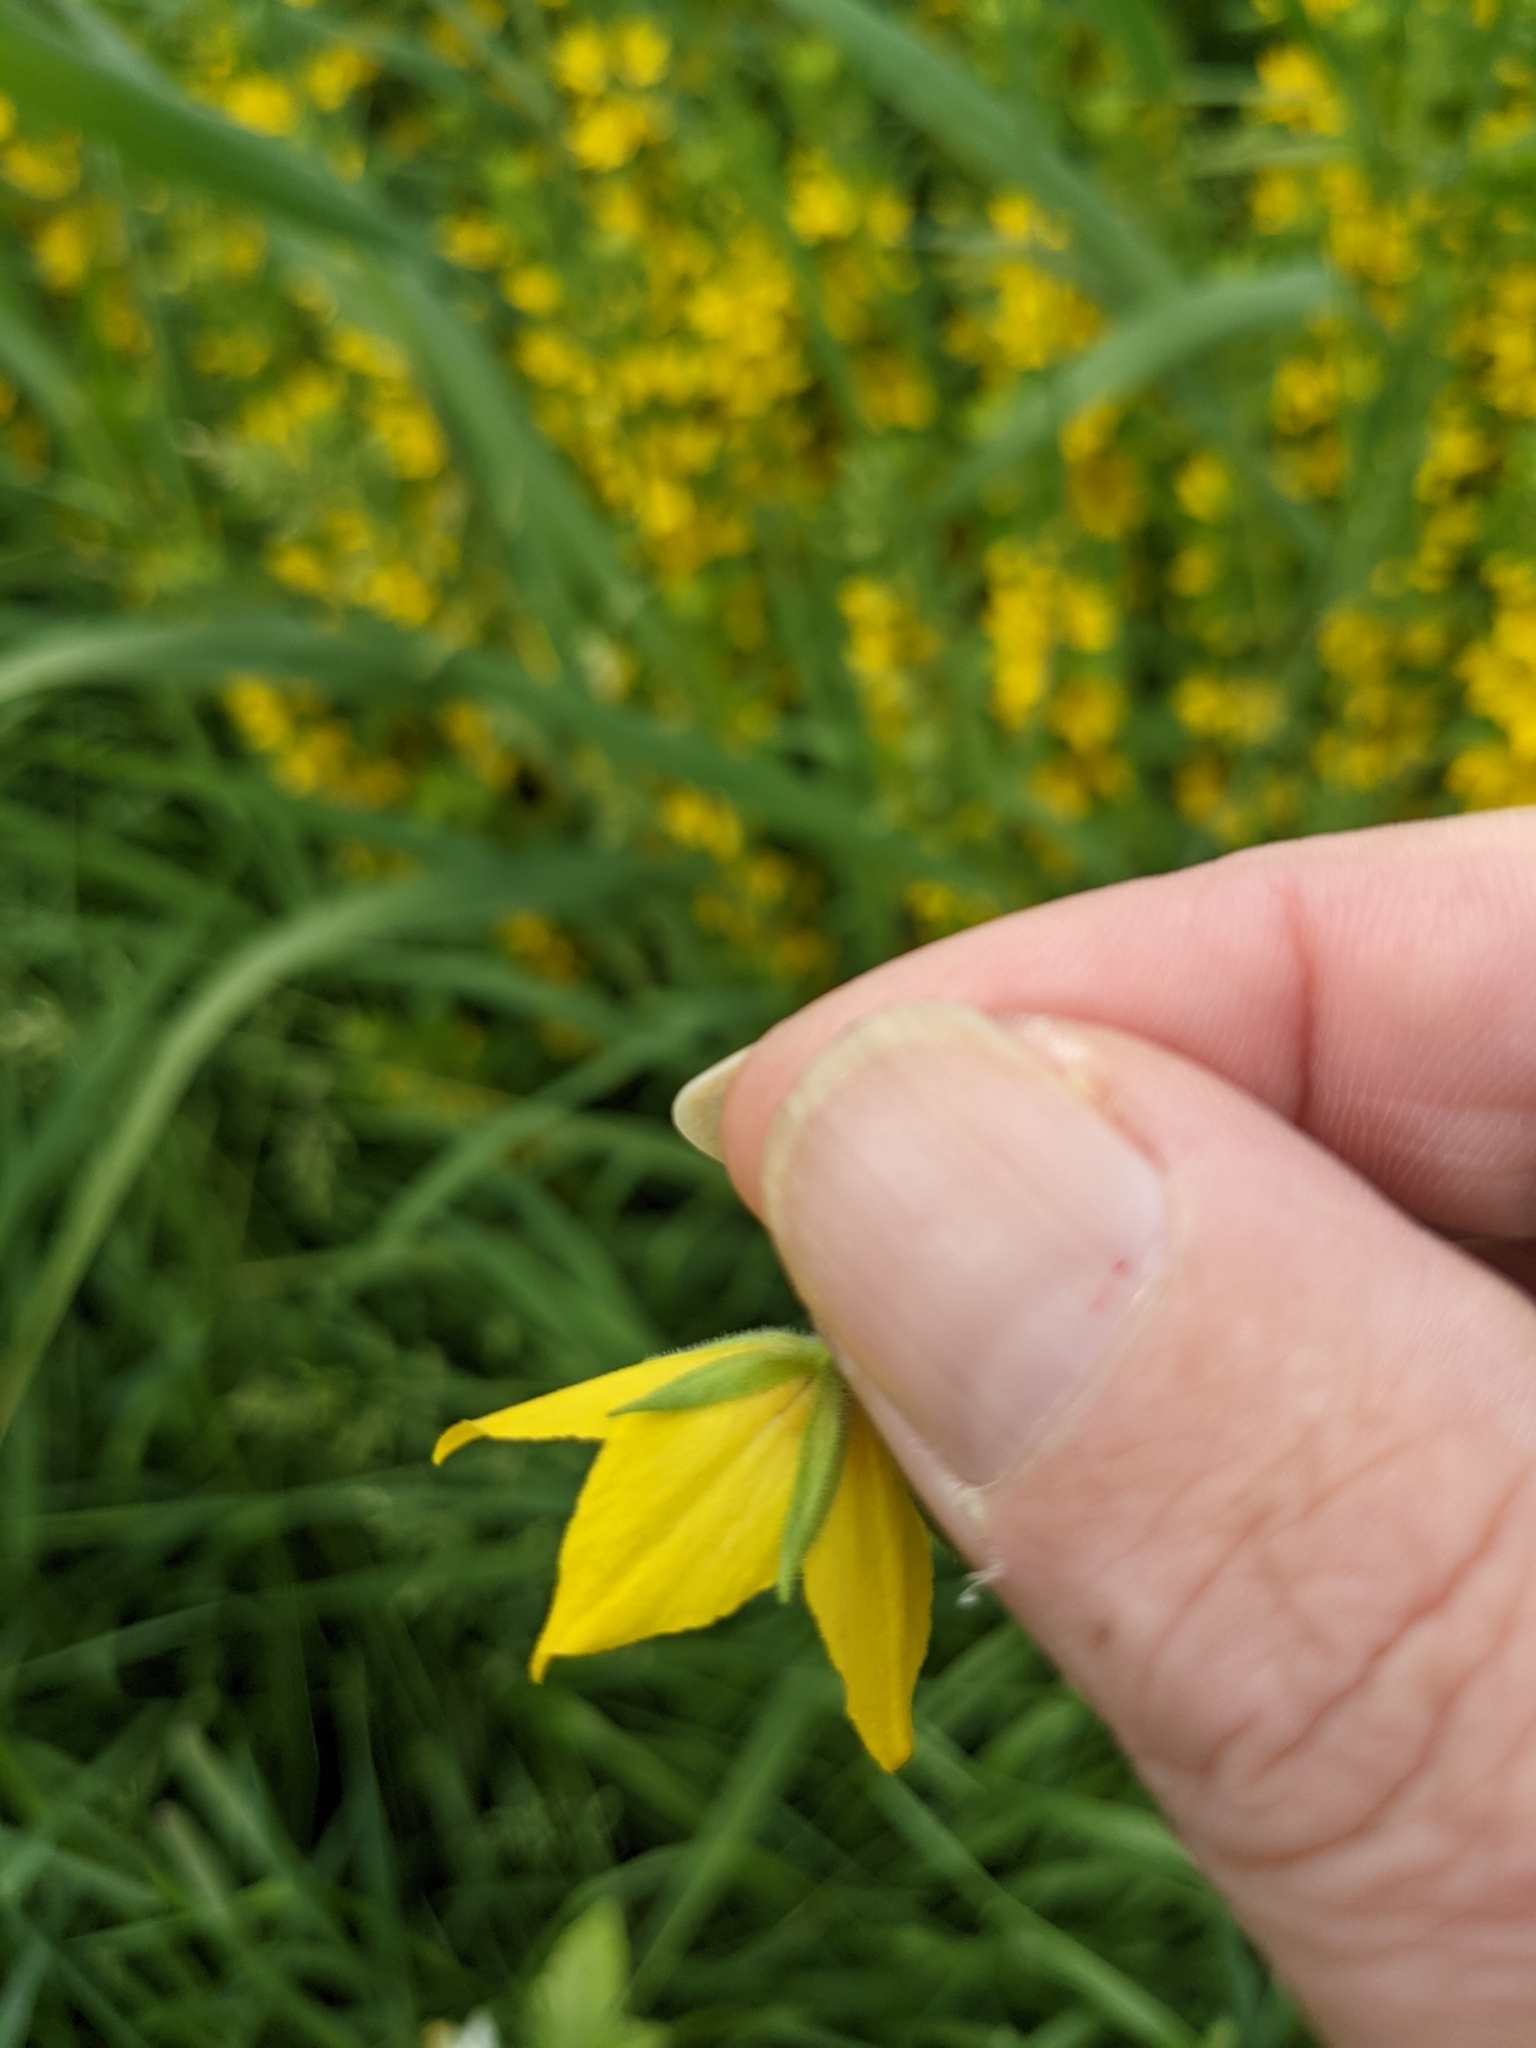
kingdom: Plantae
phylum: Tracheophyta
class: Magnoliopsida
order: Ericales
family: Primulaceae
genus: Lysimachia
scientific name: Lysimachia punctata
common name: Dotted loosestrife
